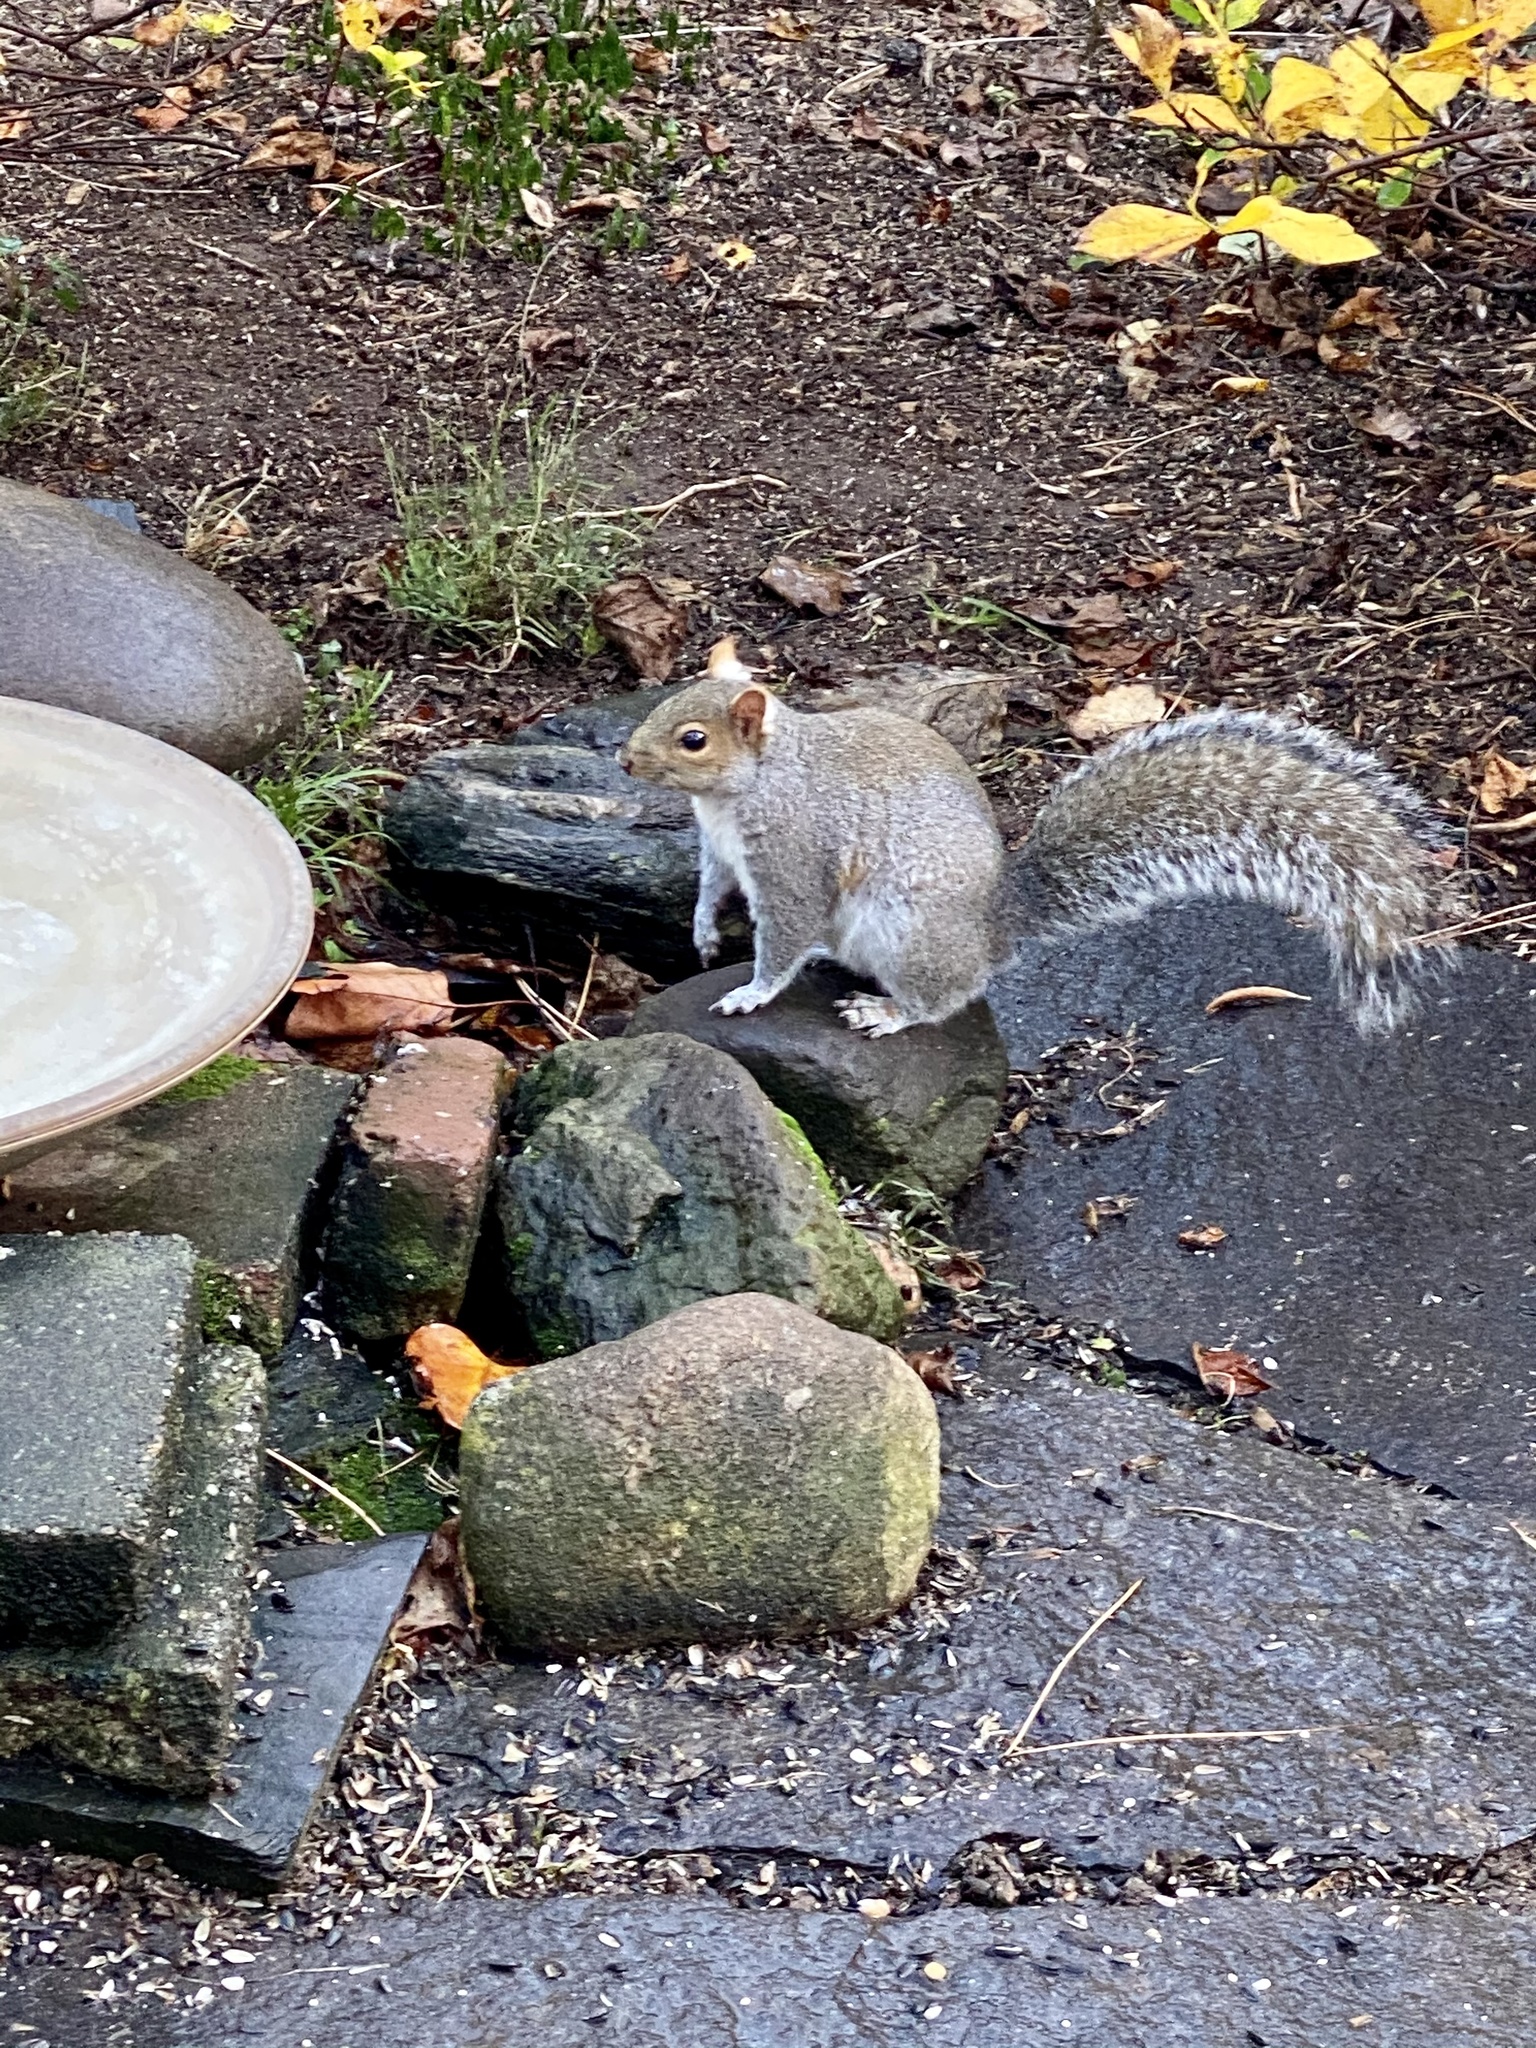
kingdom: Animalia
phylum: Chordata
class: Mammalia
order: Rodentia
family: Sciuridae
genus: Sciurus
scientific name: Sciurus carolinensis
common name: Eastern gray squirrel
